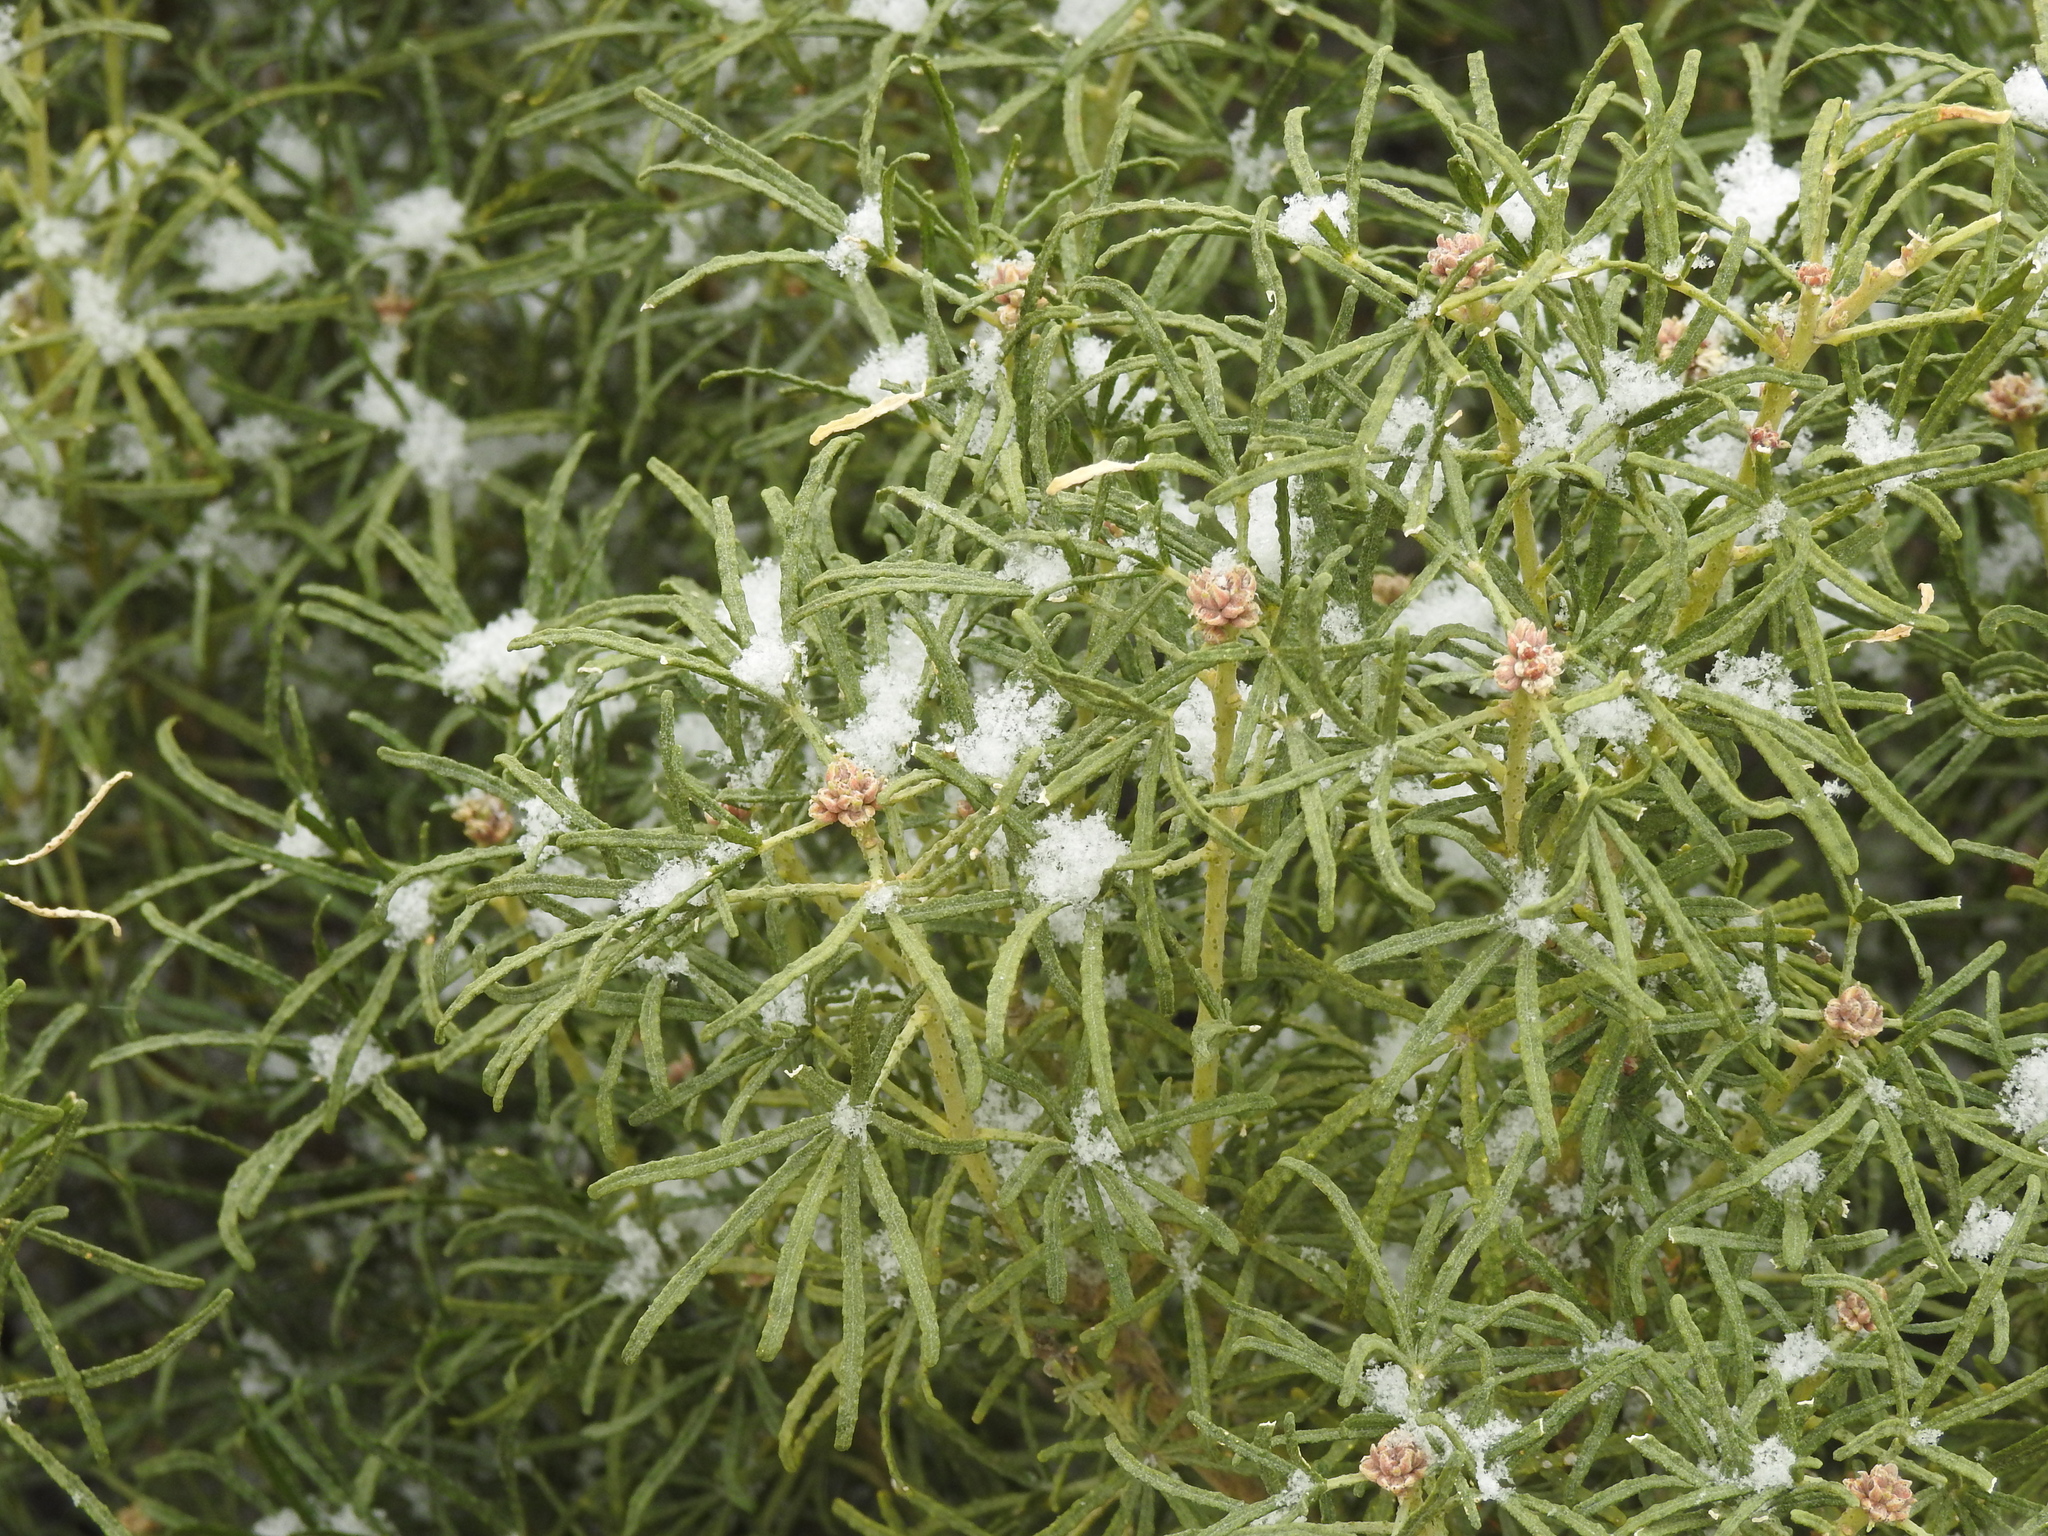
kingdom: Plantae
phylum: Tracheophyta
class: Magnoliopsida
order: Sapindales
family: Rutaceae
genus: Choisya
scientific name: Choisya dumosa
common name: Mexican-orange
